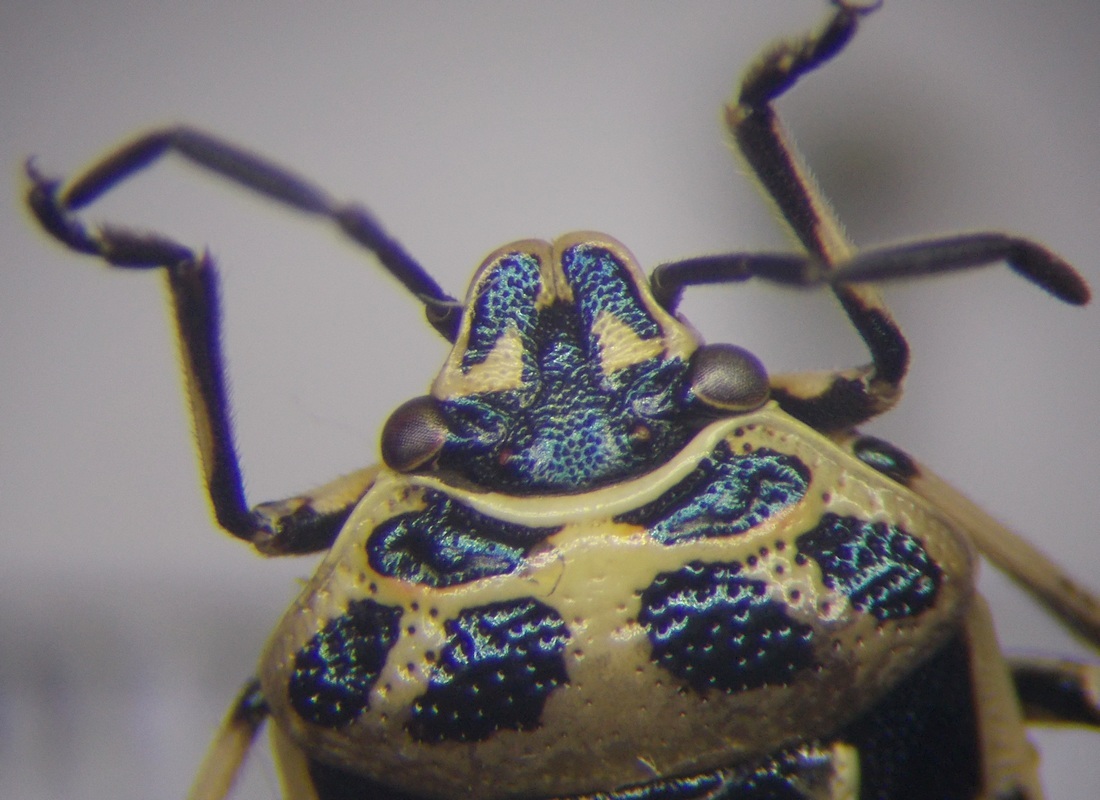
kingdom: Animalia
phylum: Arthropoda
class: Insecta
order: Hemiptera
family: Pentatomidae
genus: Eurydema
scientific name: Eurydema ornata
